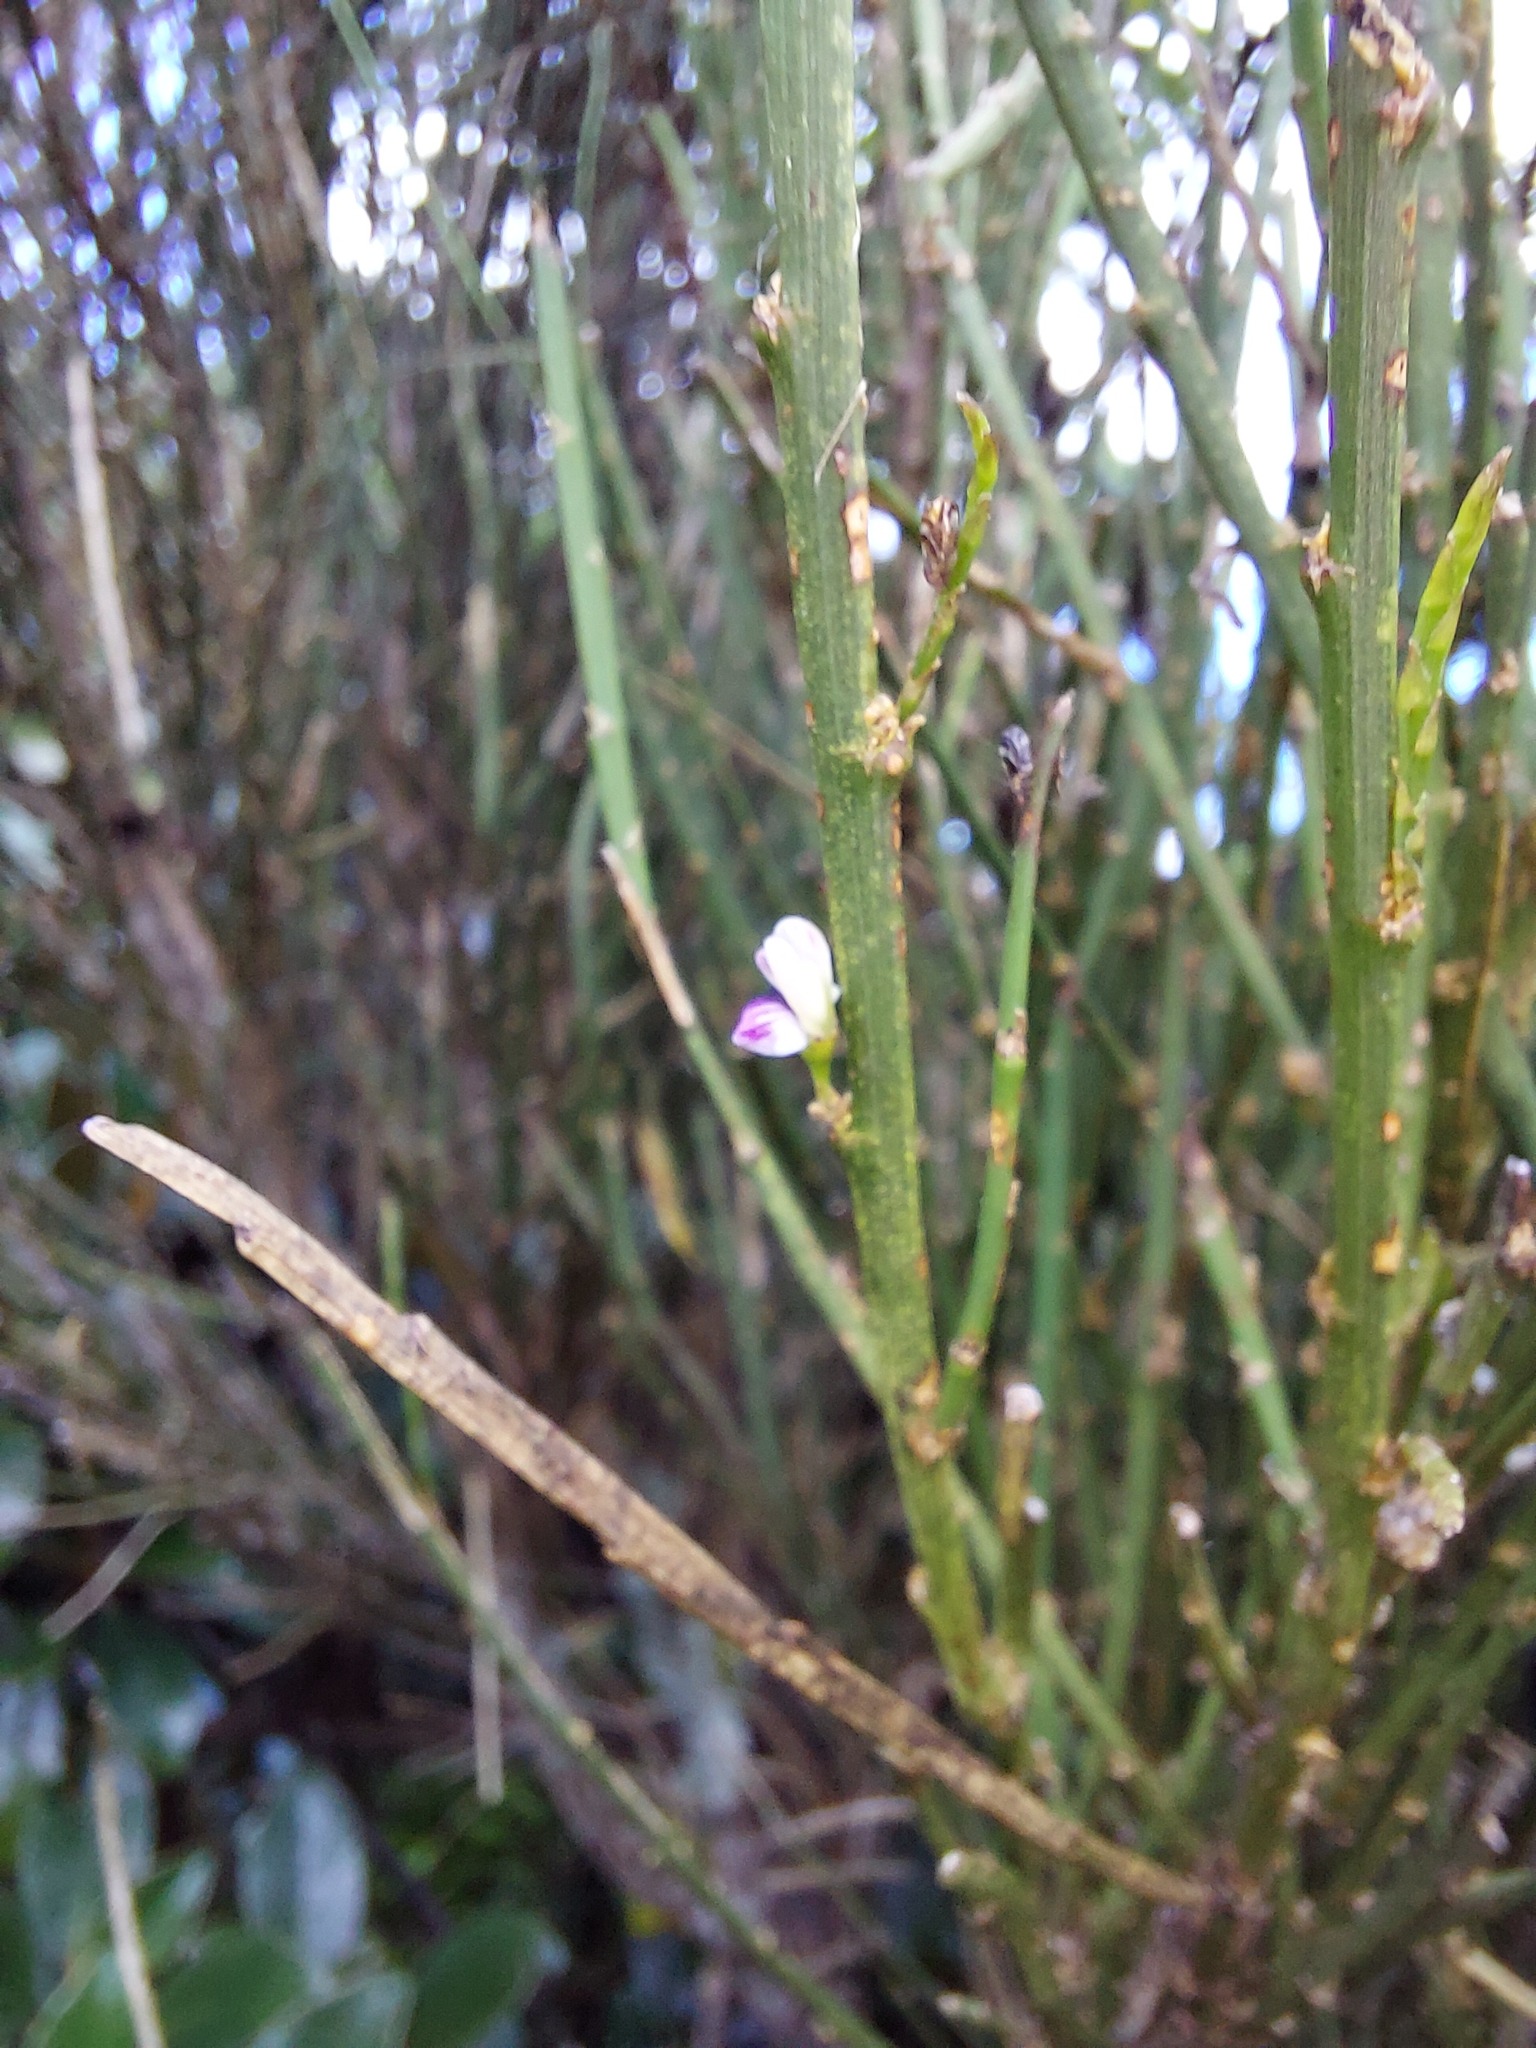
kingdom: Plantae
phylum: Tracheophyta
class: Magnoliopsida
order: Fabales
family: Fabaceae
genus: Carmichaelia
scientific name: Carmichaelia australis
